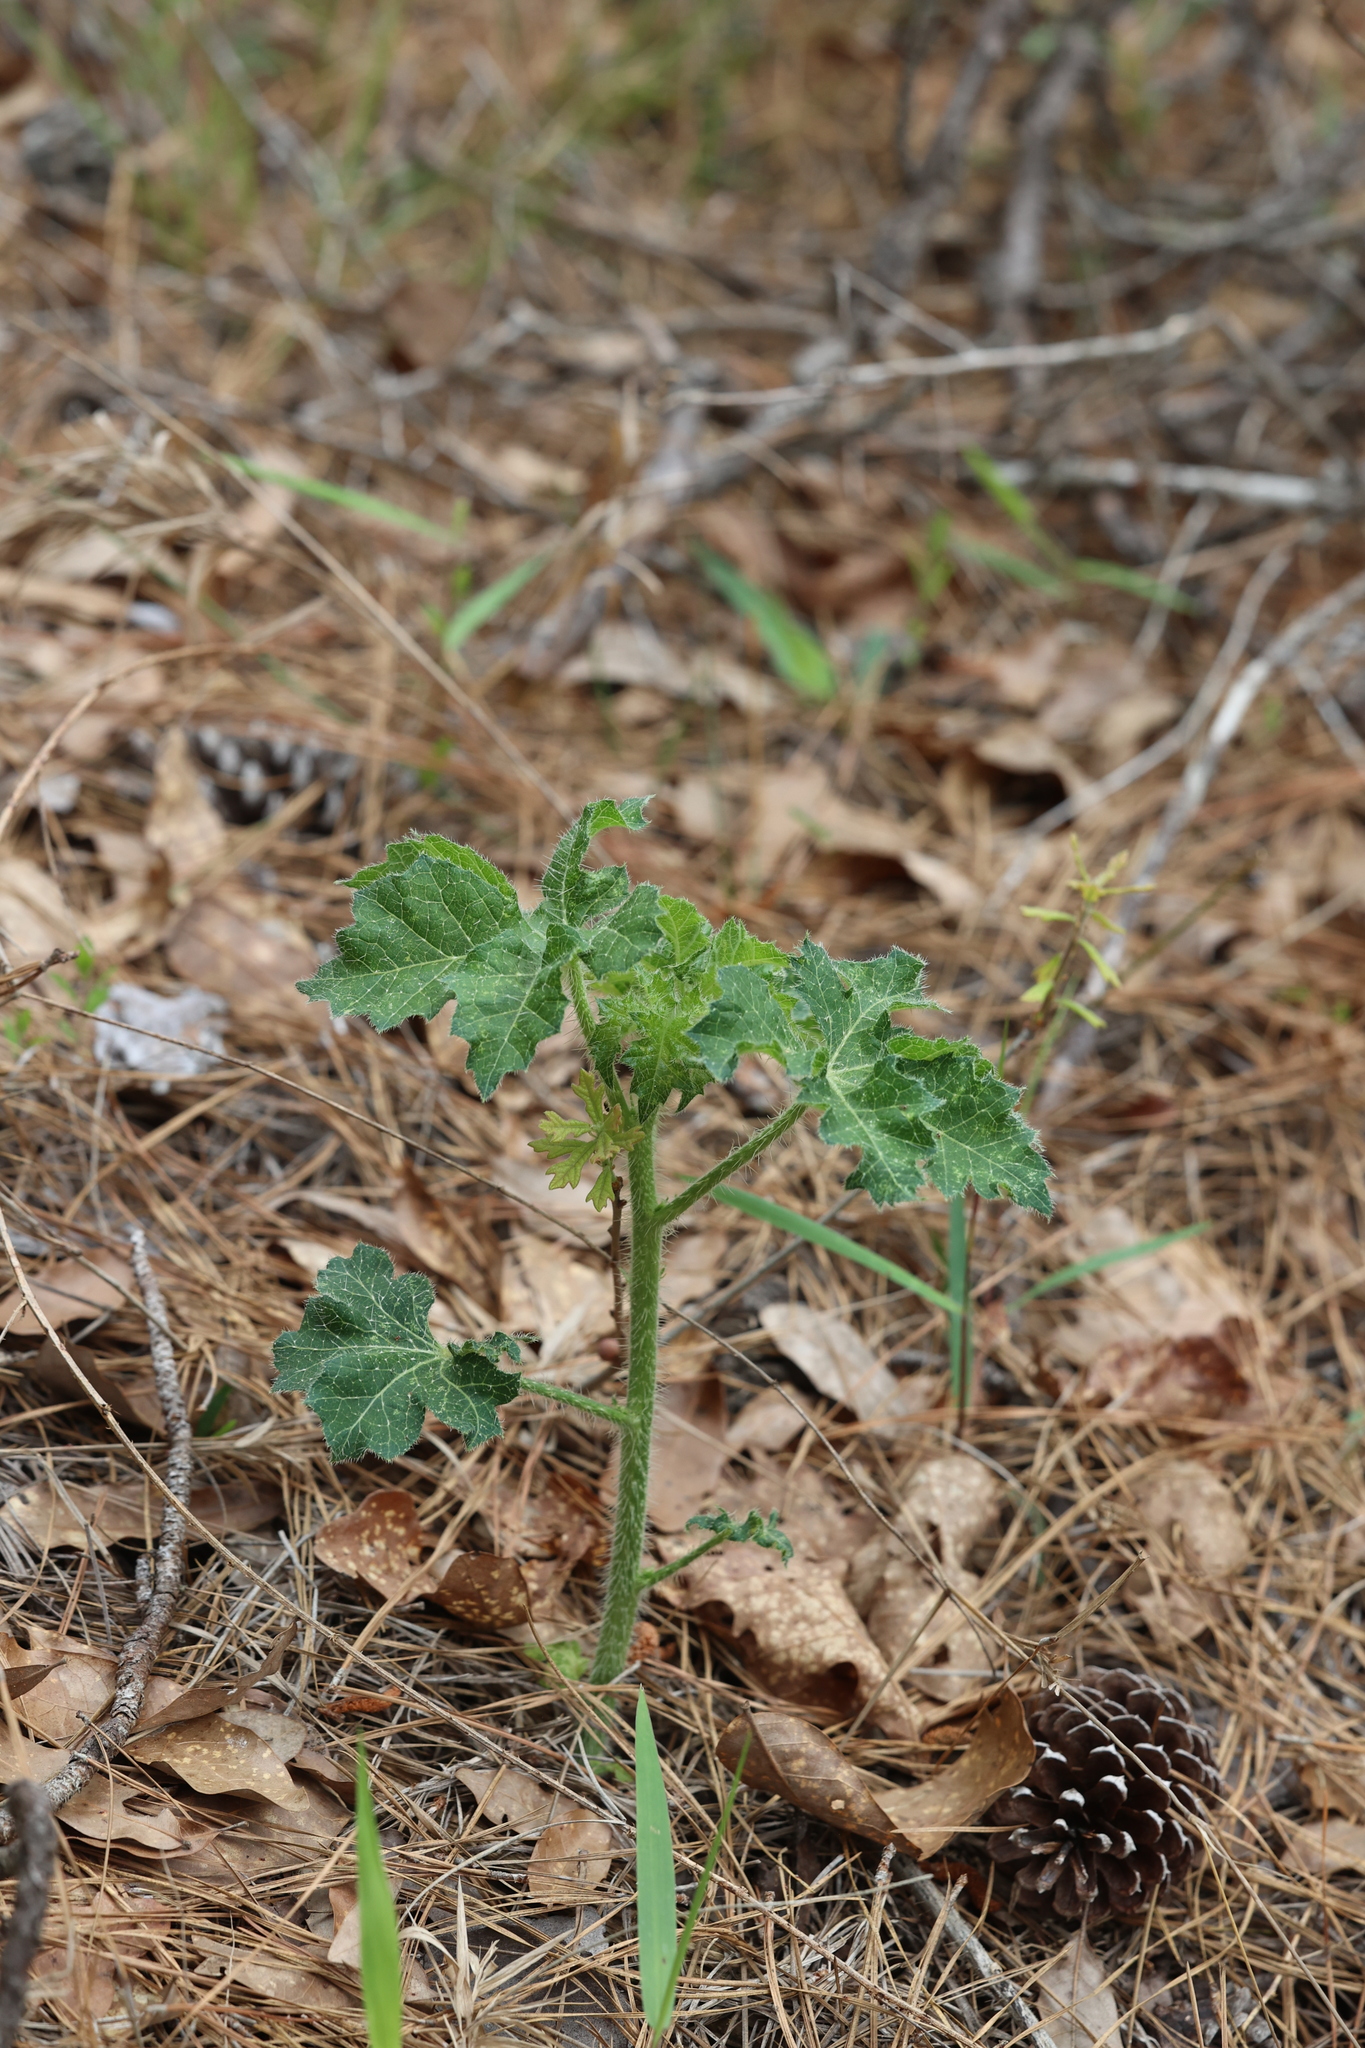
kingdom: Plantae
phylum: Tracheophyta
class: Magnoliopsida
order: Malpighiales
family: Euphorbiaceae
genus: Cnidoscolus
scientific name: Cnidoscolus texanus
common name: Texas bull-nettle
